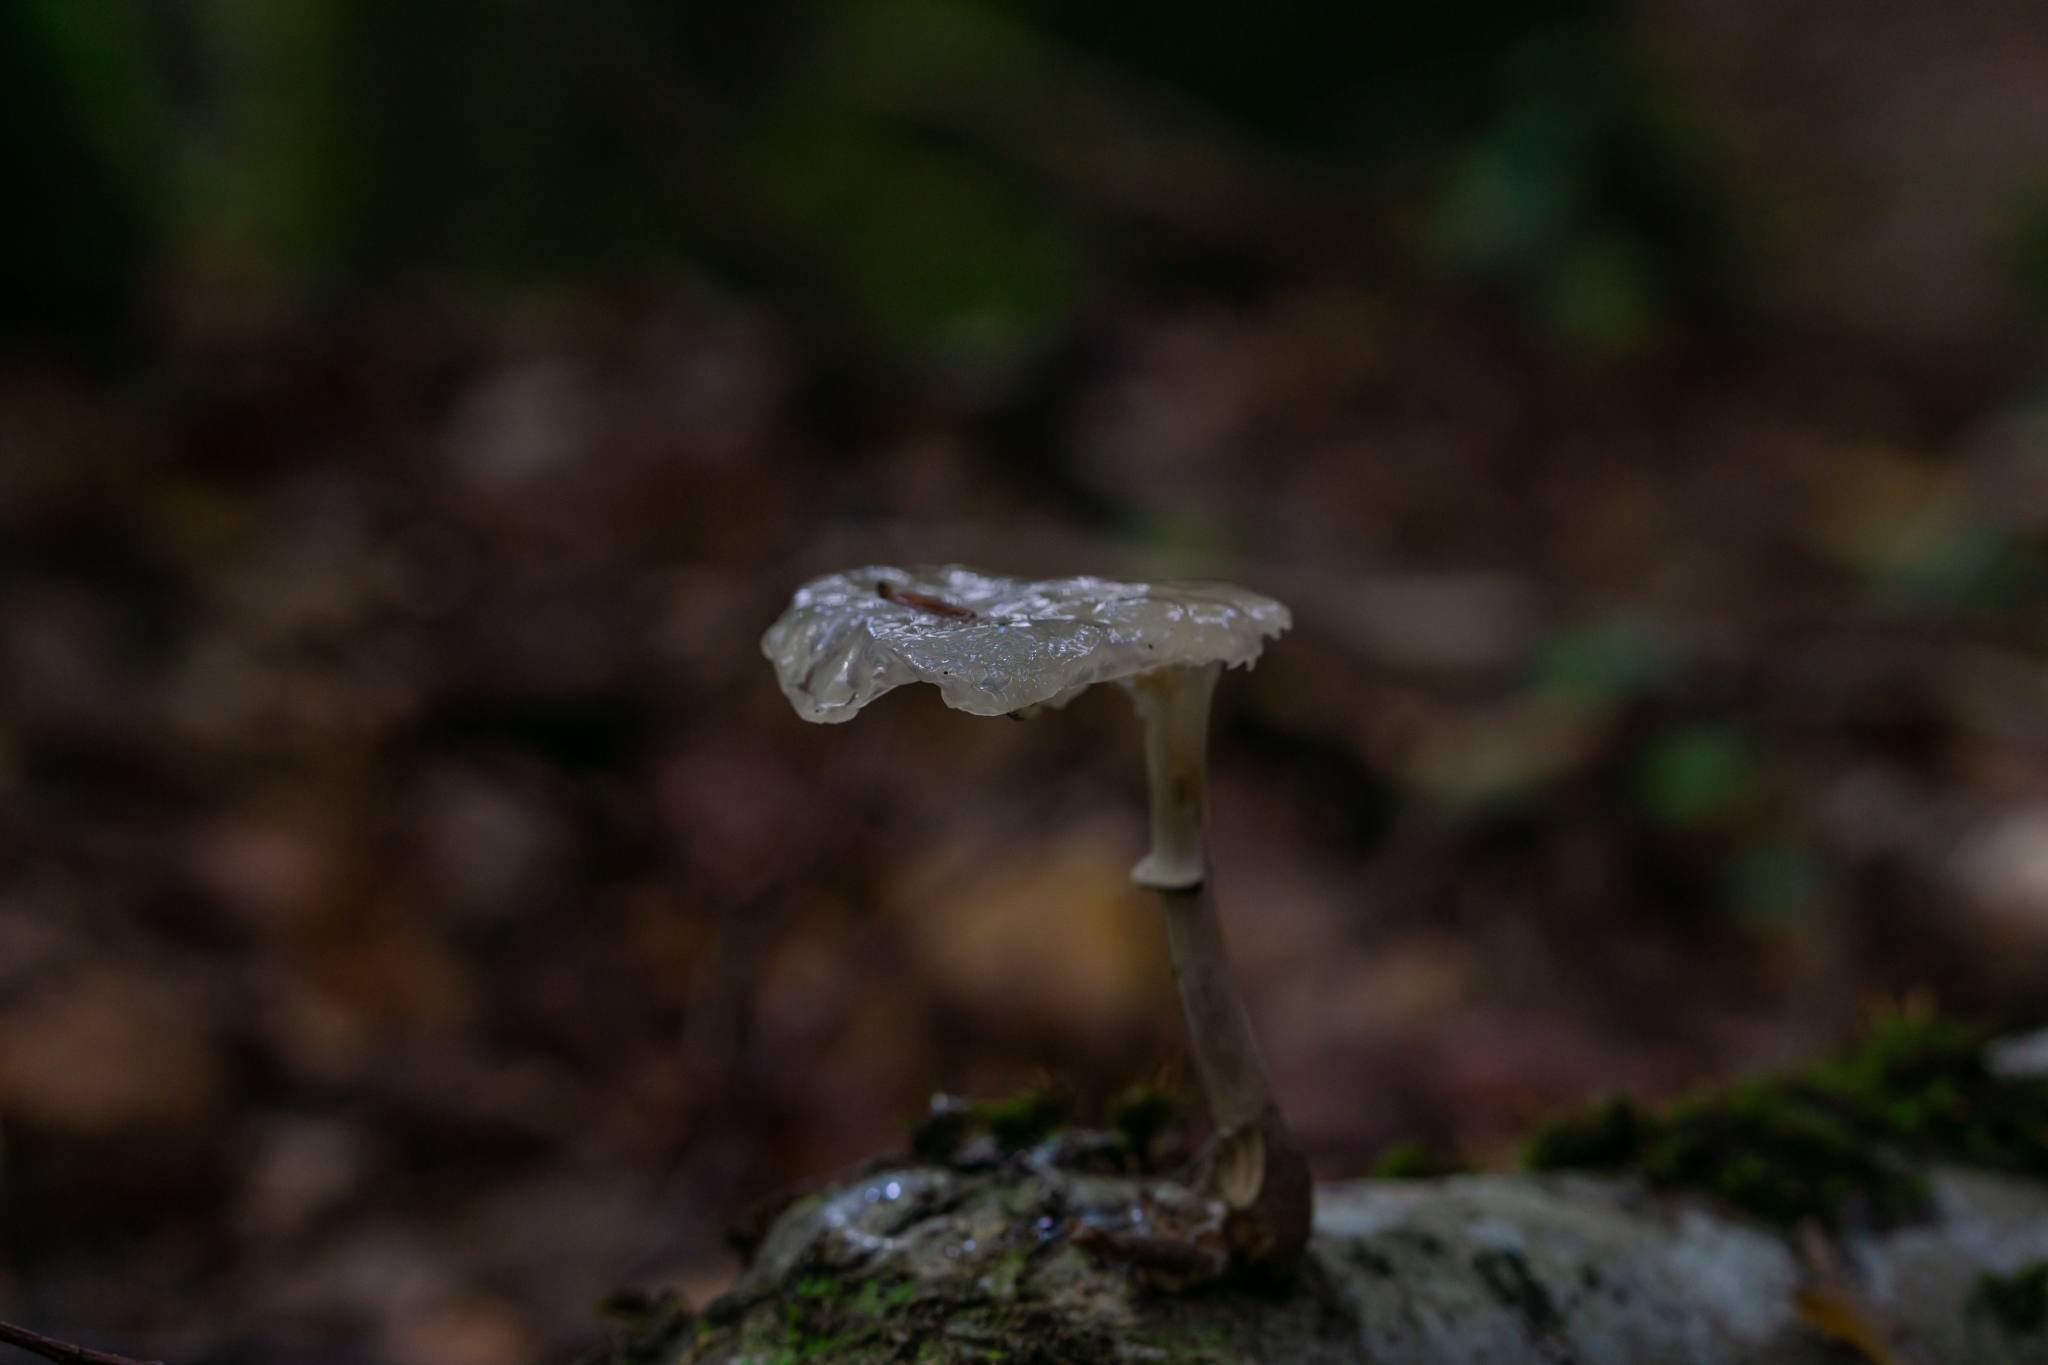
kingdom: Fungi
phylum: Basidiomycota
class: Agaricomycetes
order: Agaricales
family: Physalacriaceae
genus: Mucidula
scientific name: Mucidula mucida
